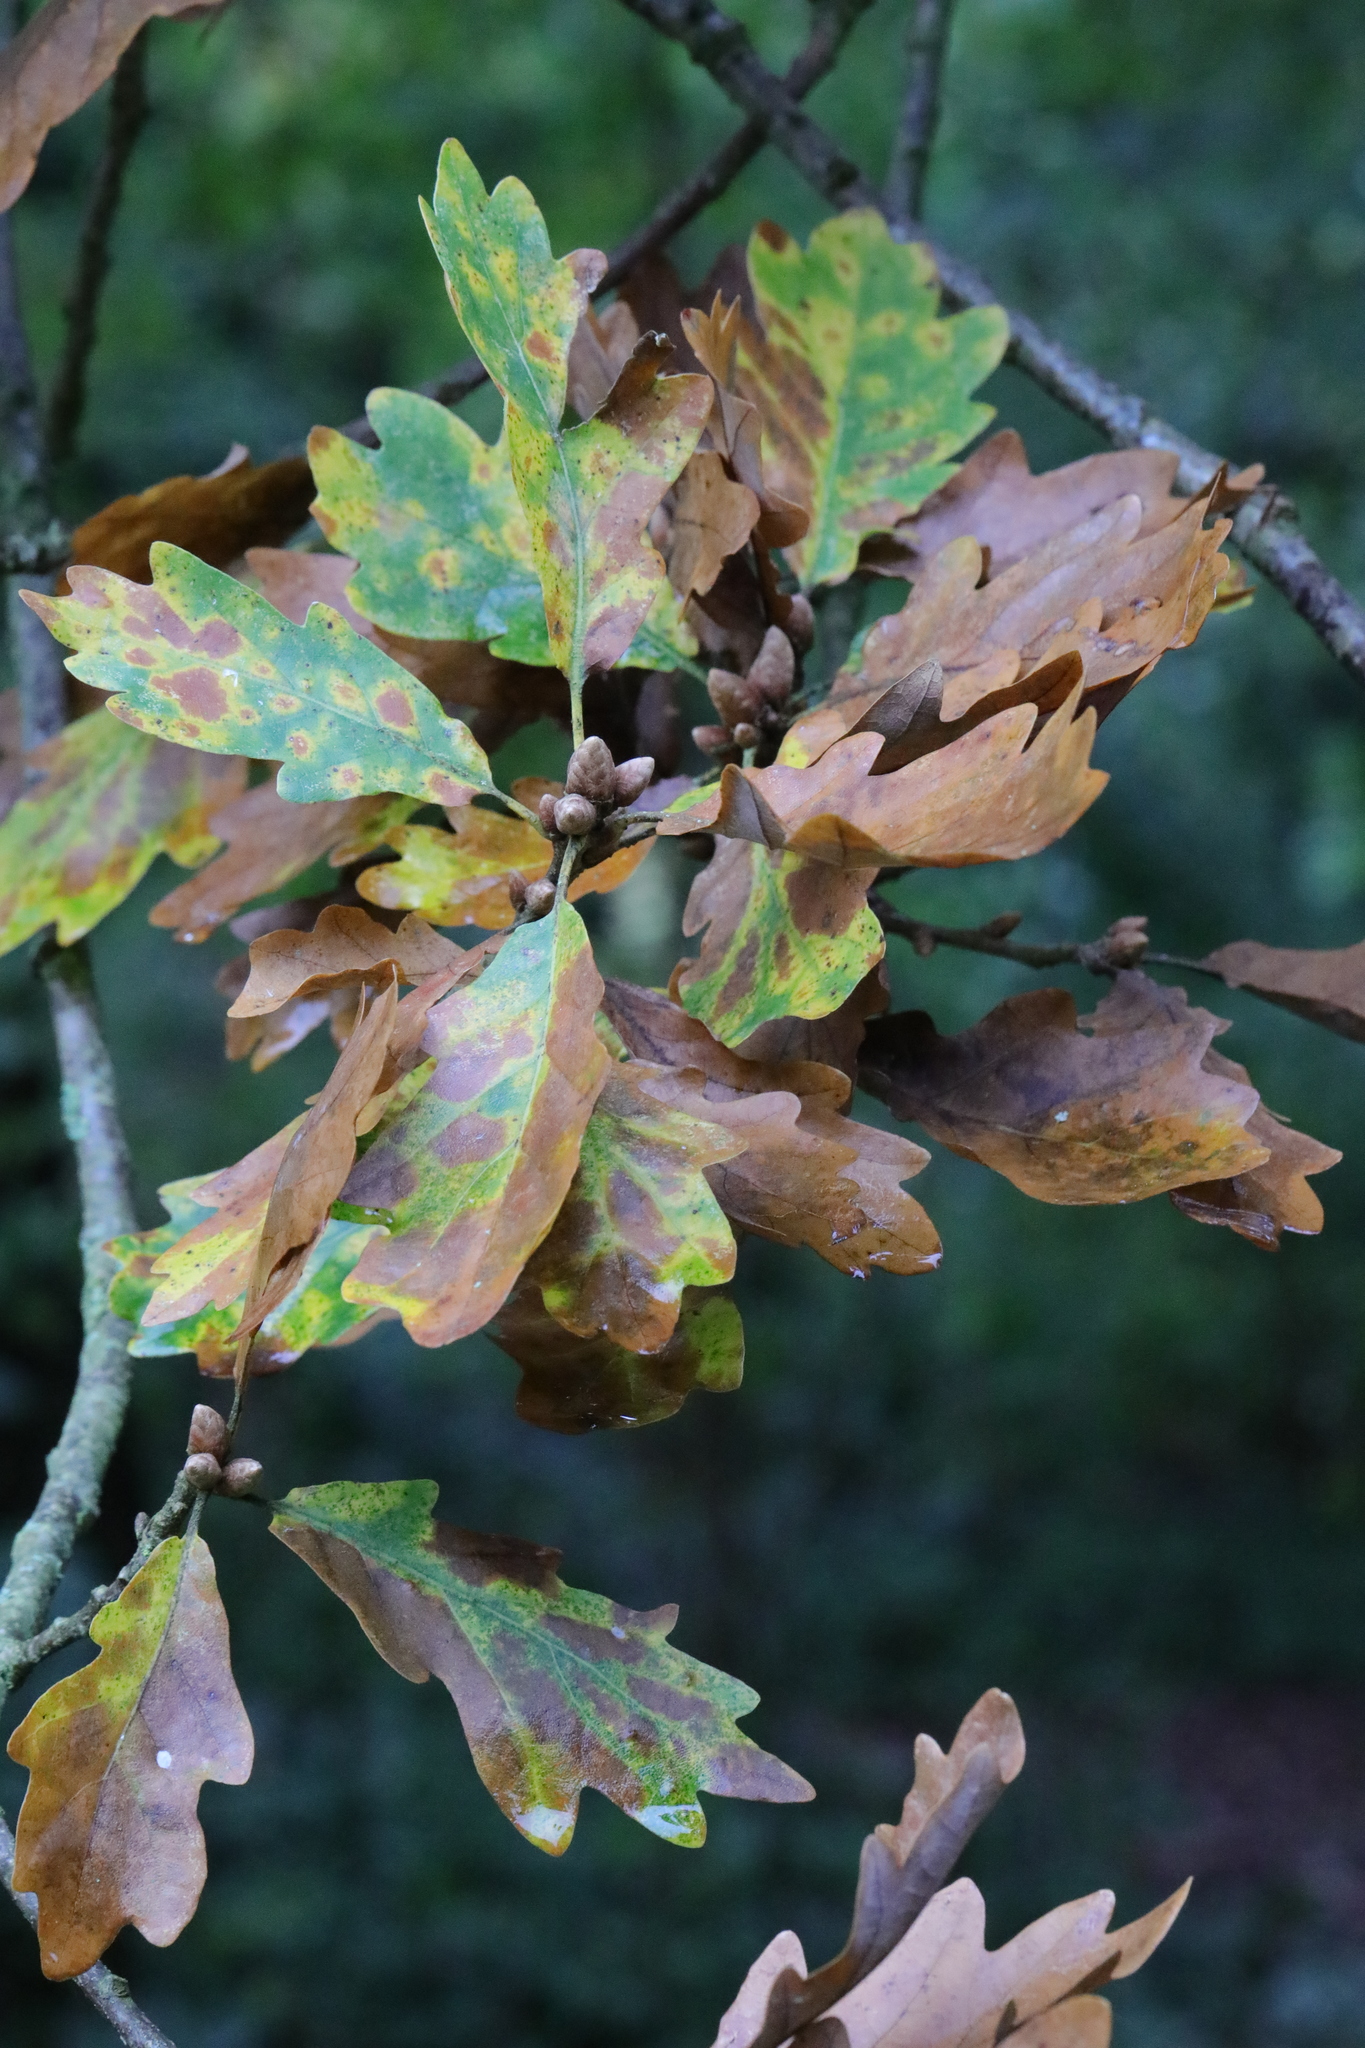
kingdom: Plantae
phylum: Tracheophyta
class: Magnoliopsida
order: Fagales
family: Fagaceae
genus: Quercus
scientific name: Quercus robur
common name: Pedunculate oak
